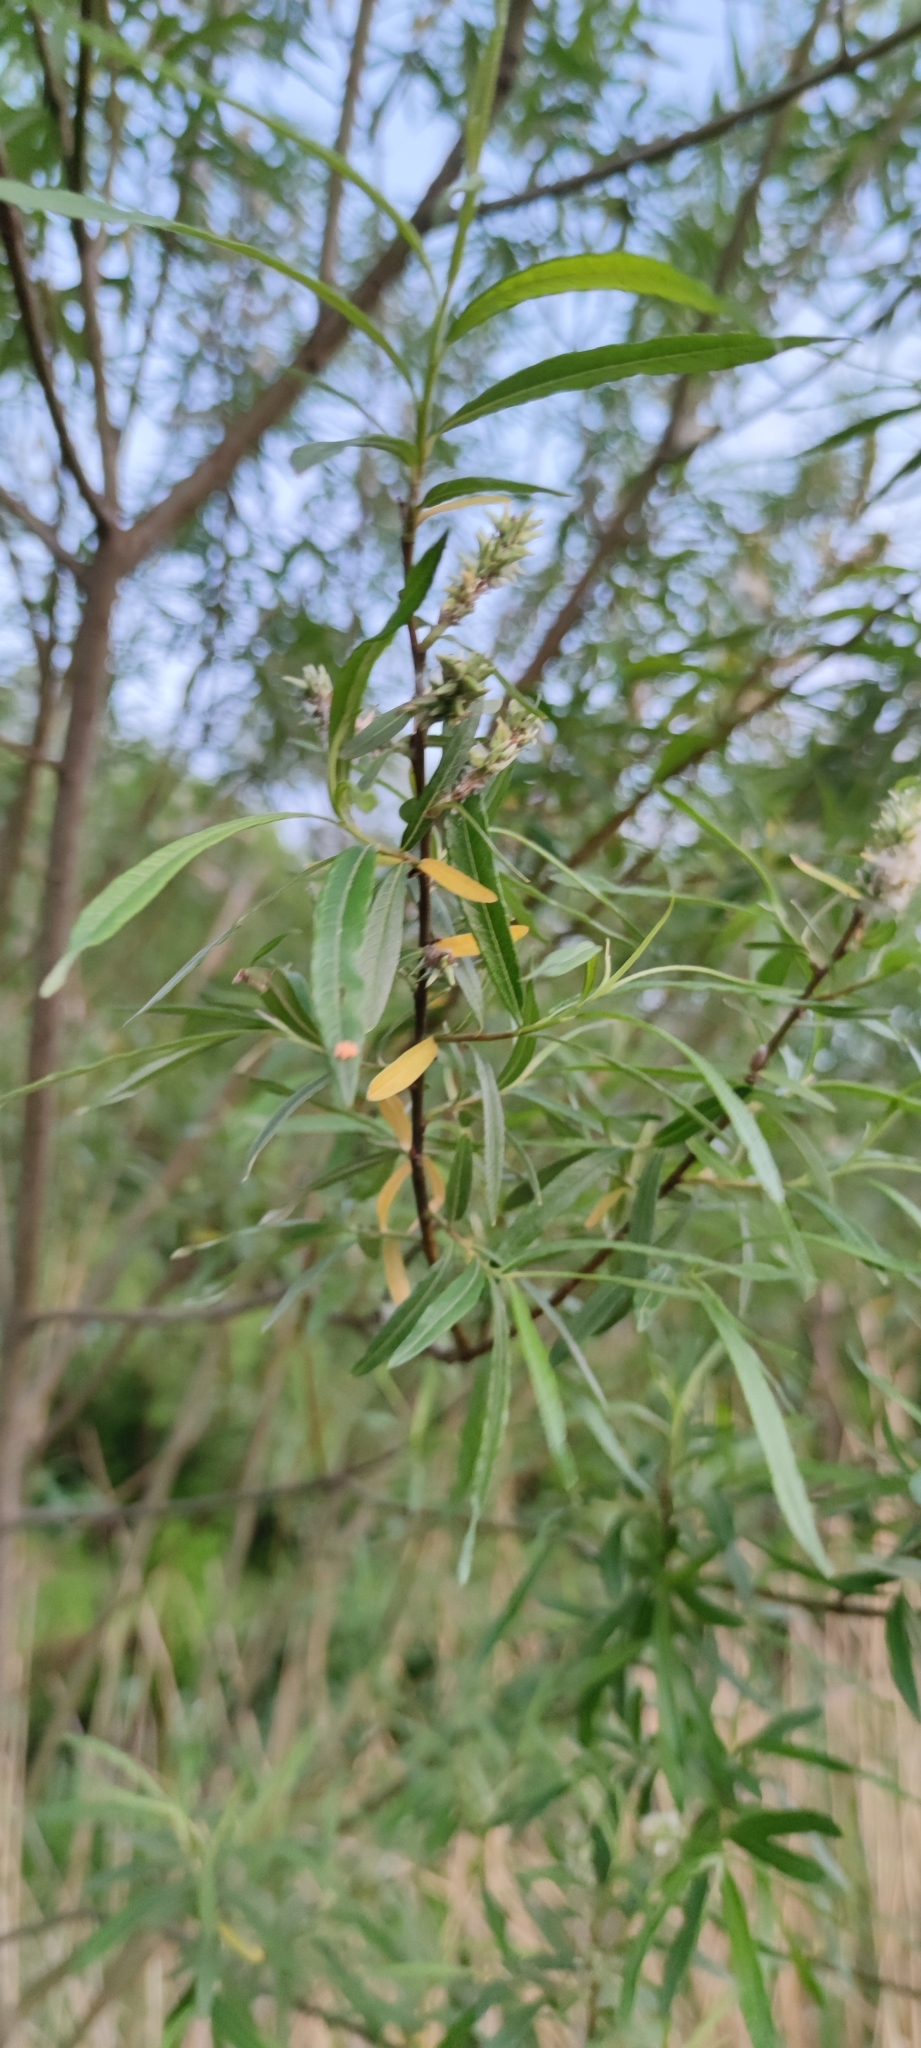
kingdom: Plantae
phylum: Tracheophyta
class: Magnoliopsida
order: Malpighiales
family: Salicaceae
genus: Salix
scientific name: Salix viminalis
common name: Osier
